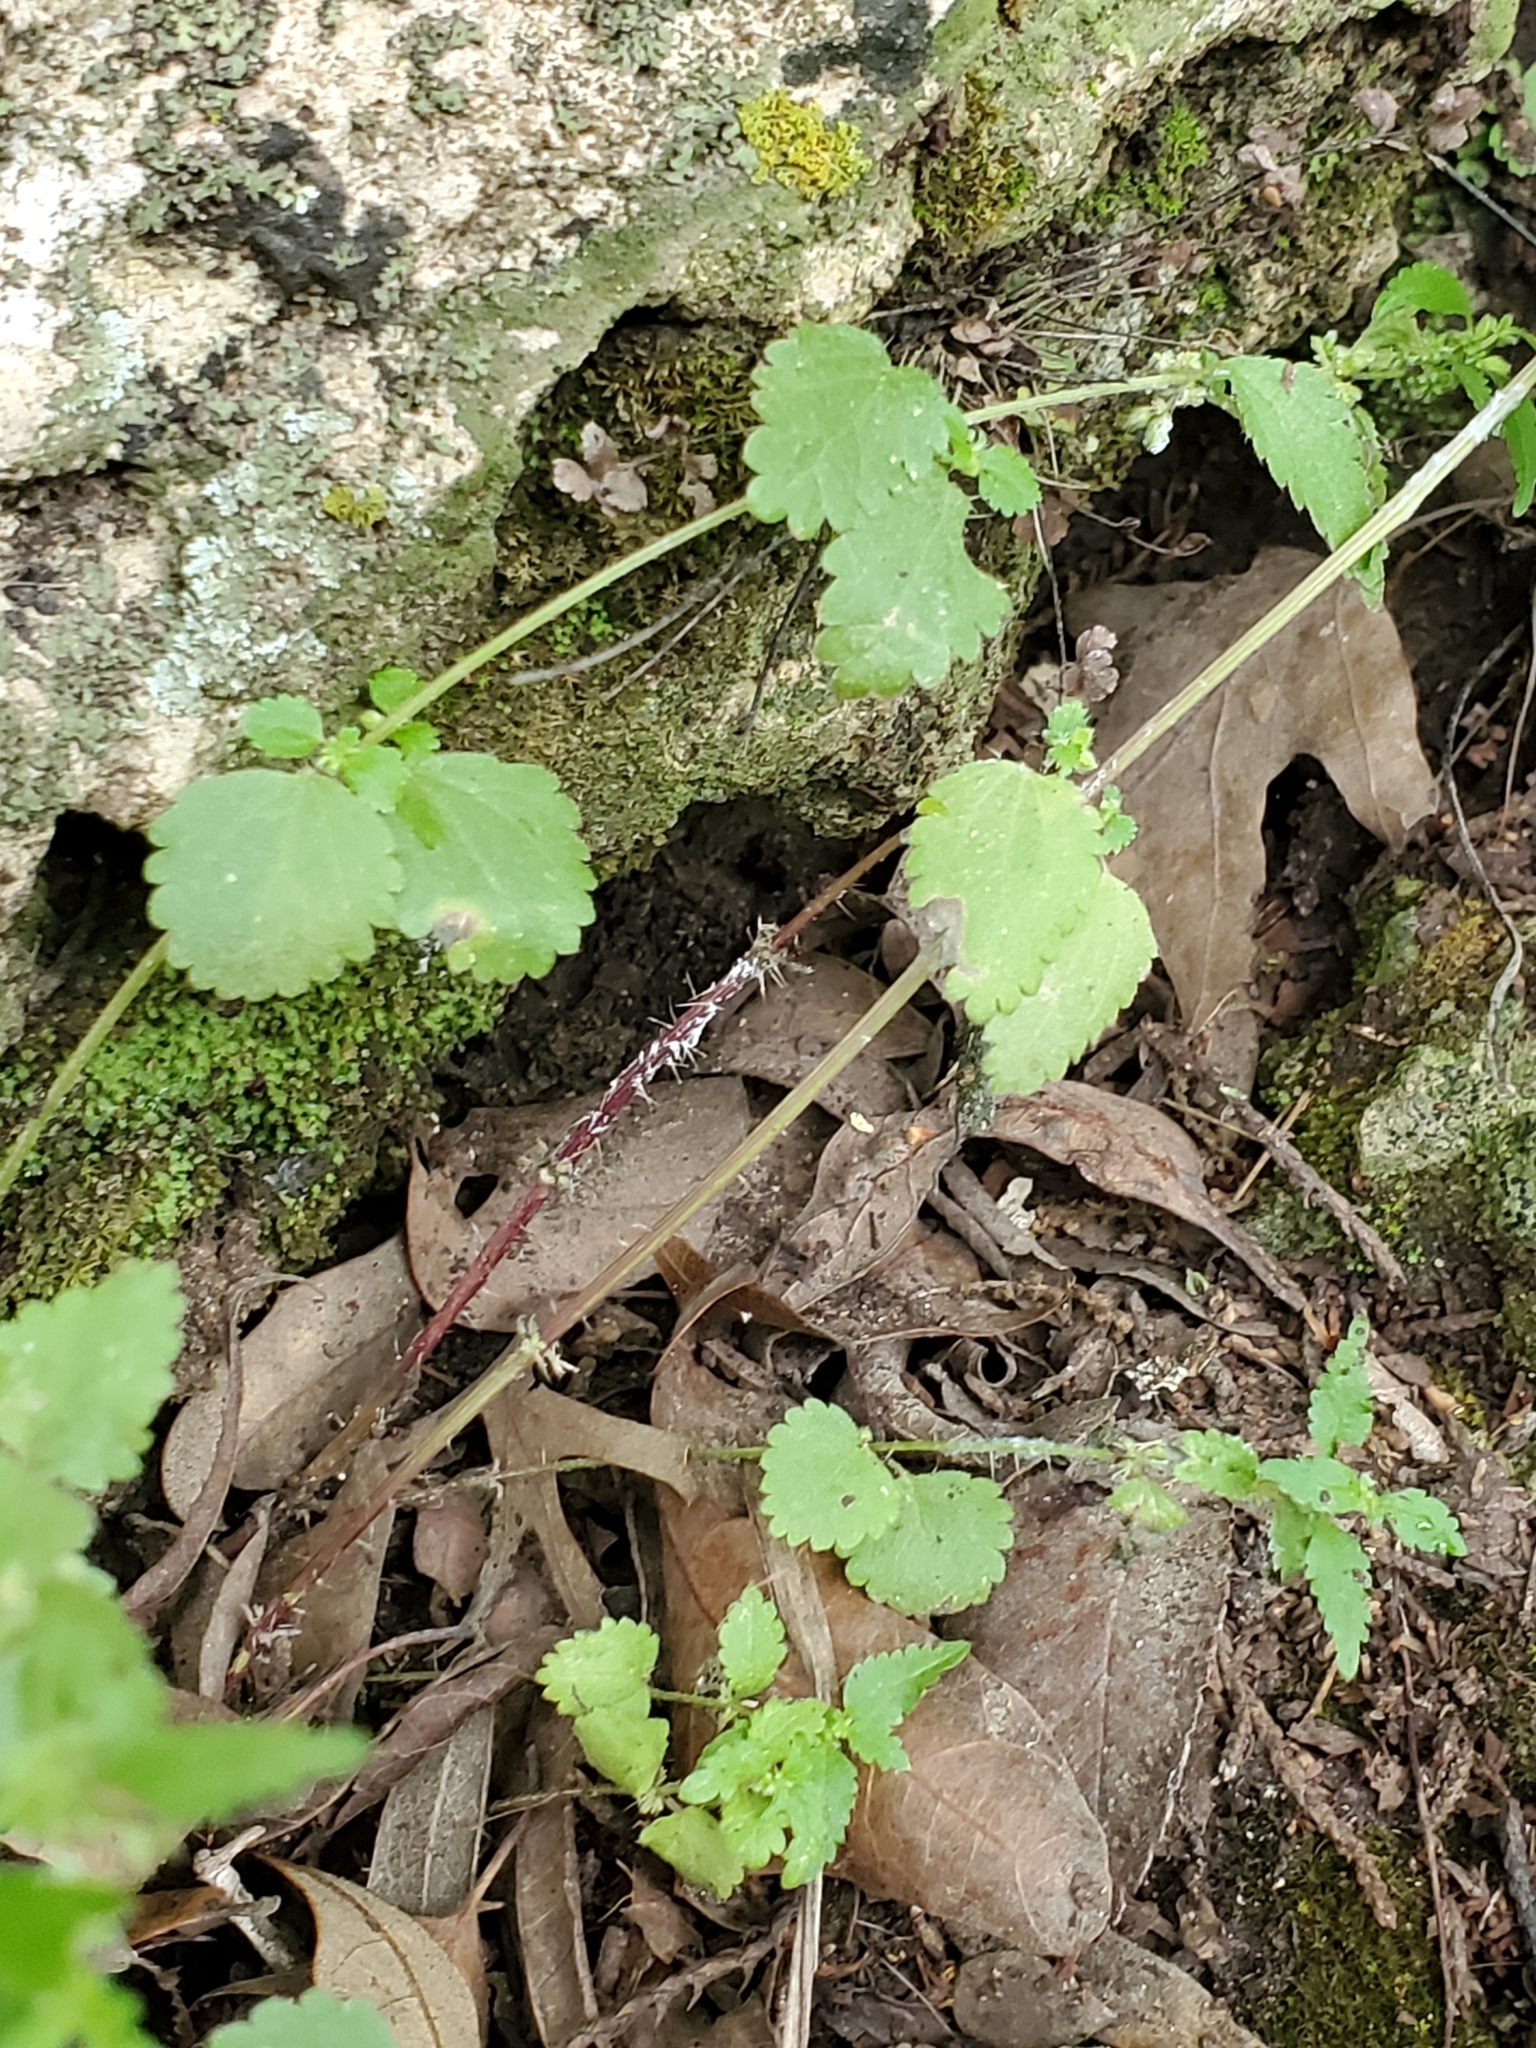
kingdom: Plantae
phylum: Tracheophyta
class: Magnoliopsida
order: Rosales
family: Urticaceae
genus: Urtica
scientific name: Urtica chamaedryoides
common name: Heart-leaf nettle
